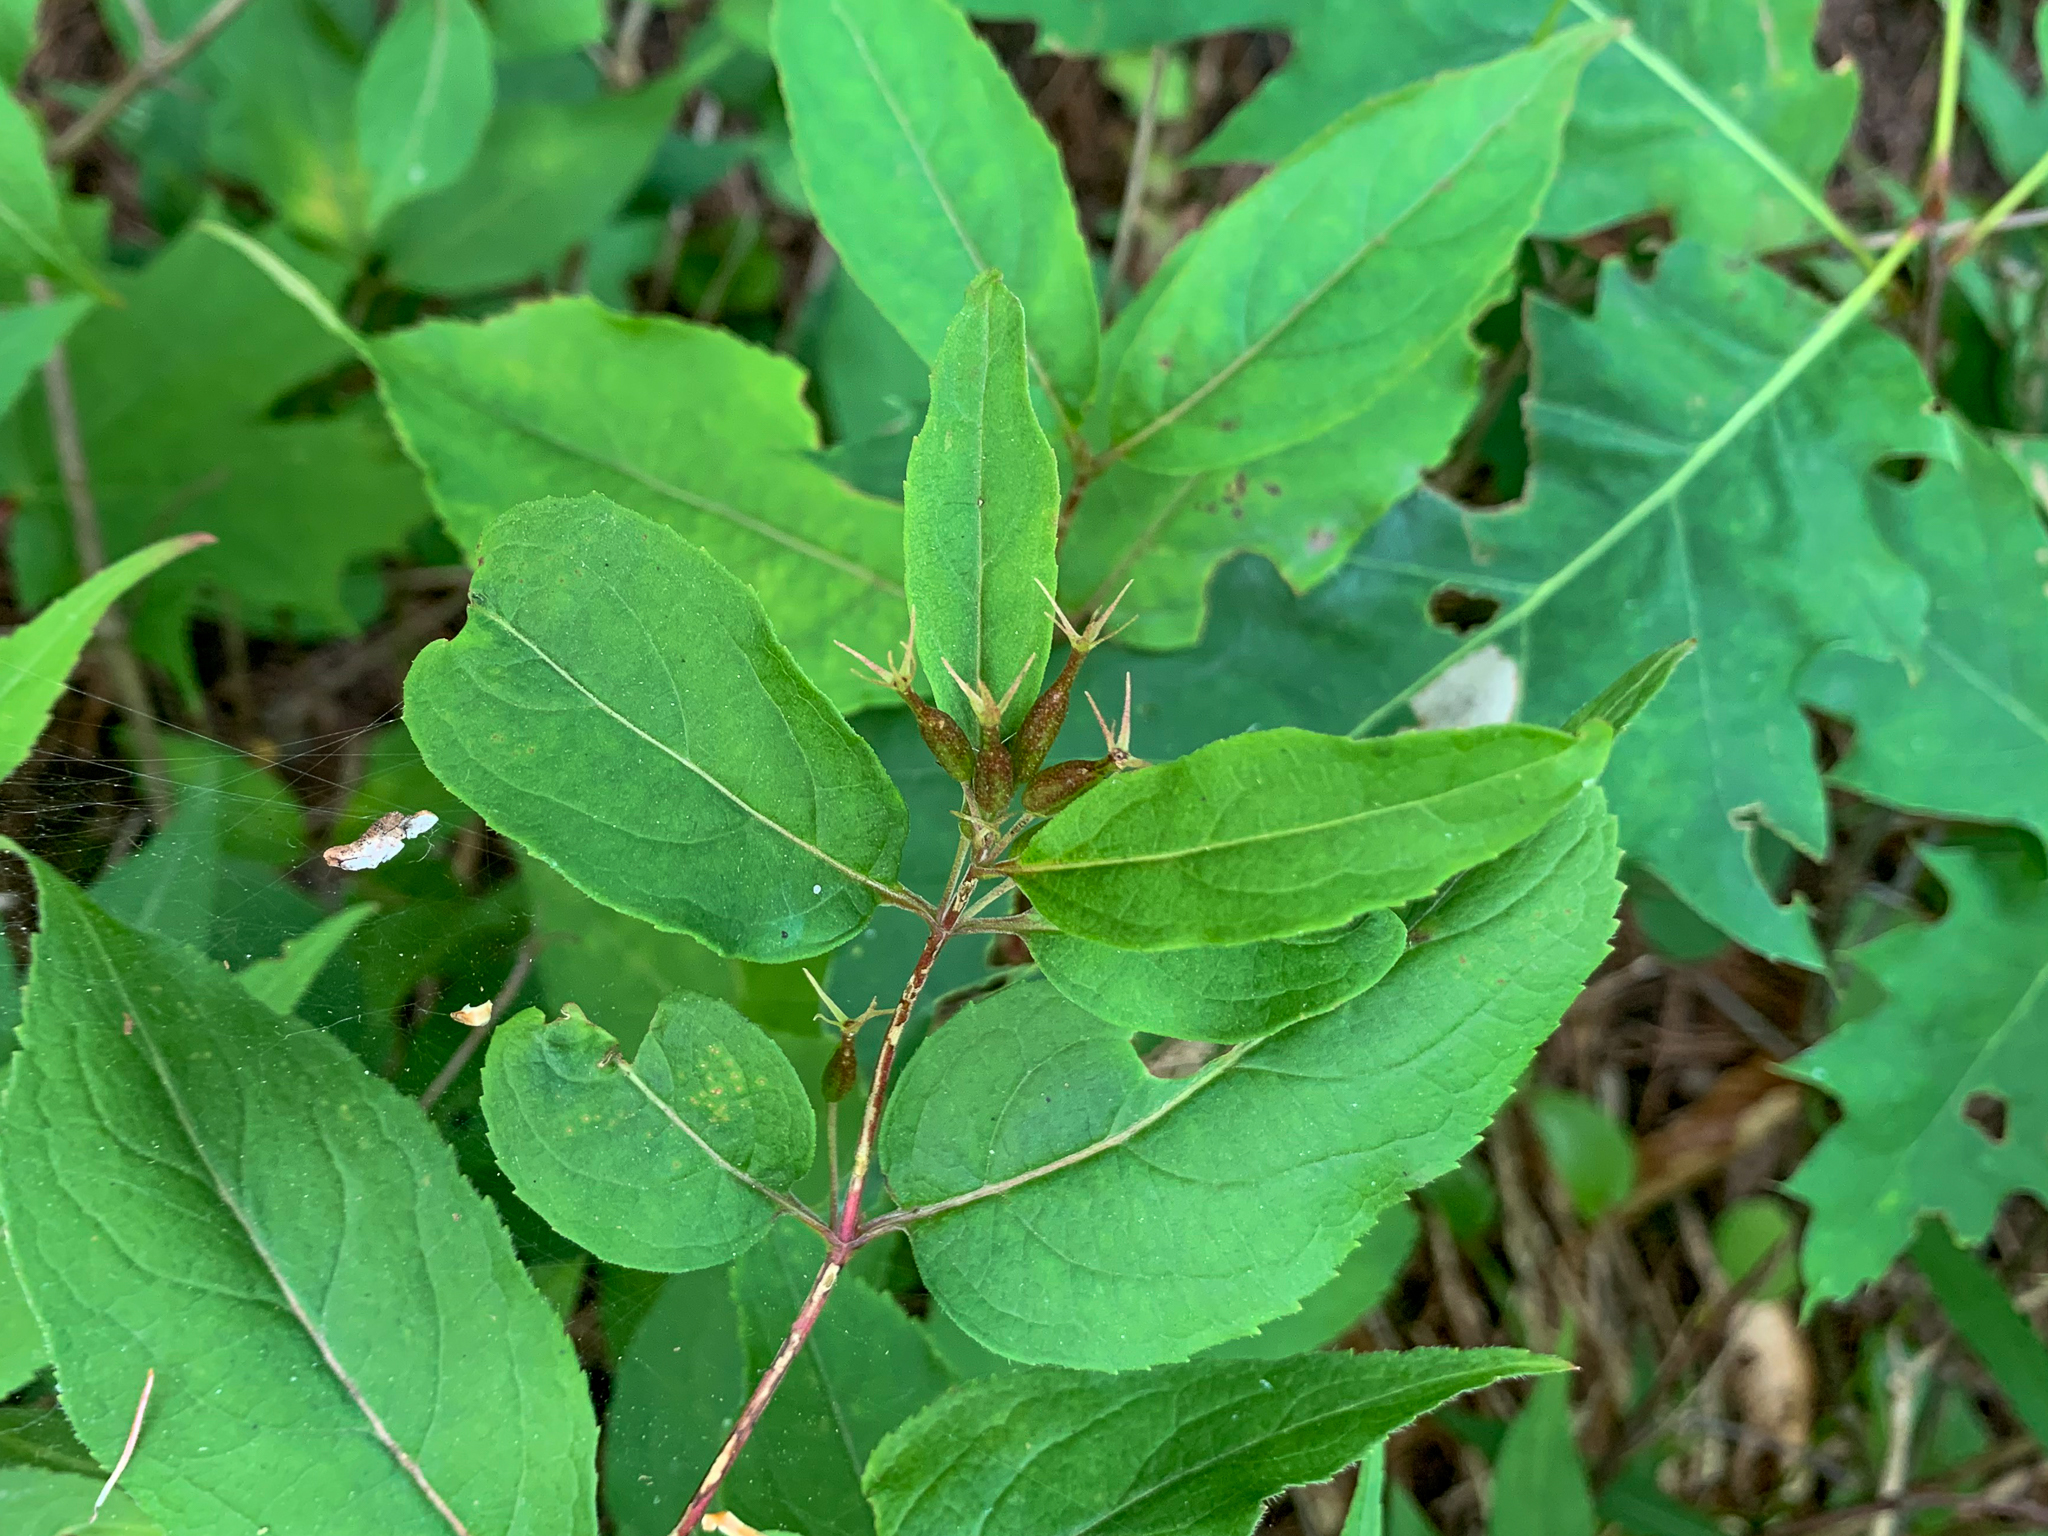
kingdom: Plantae
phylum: Tracheophyta
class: Magnoliopsida
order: Dipsacales
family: Caprifoliaceae
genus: Diervilla
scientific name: Diervilla lonicera
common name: Bush-honeysuckle
